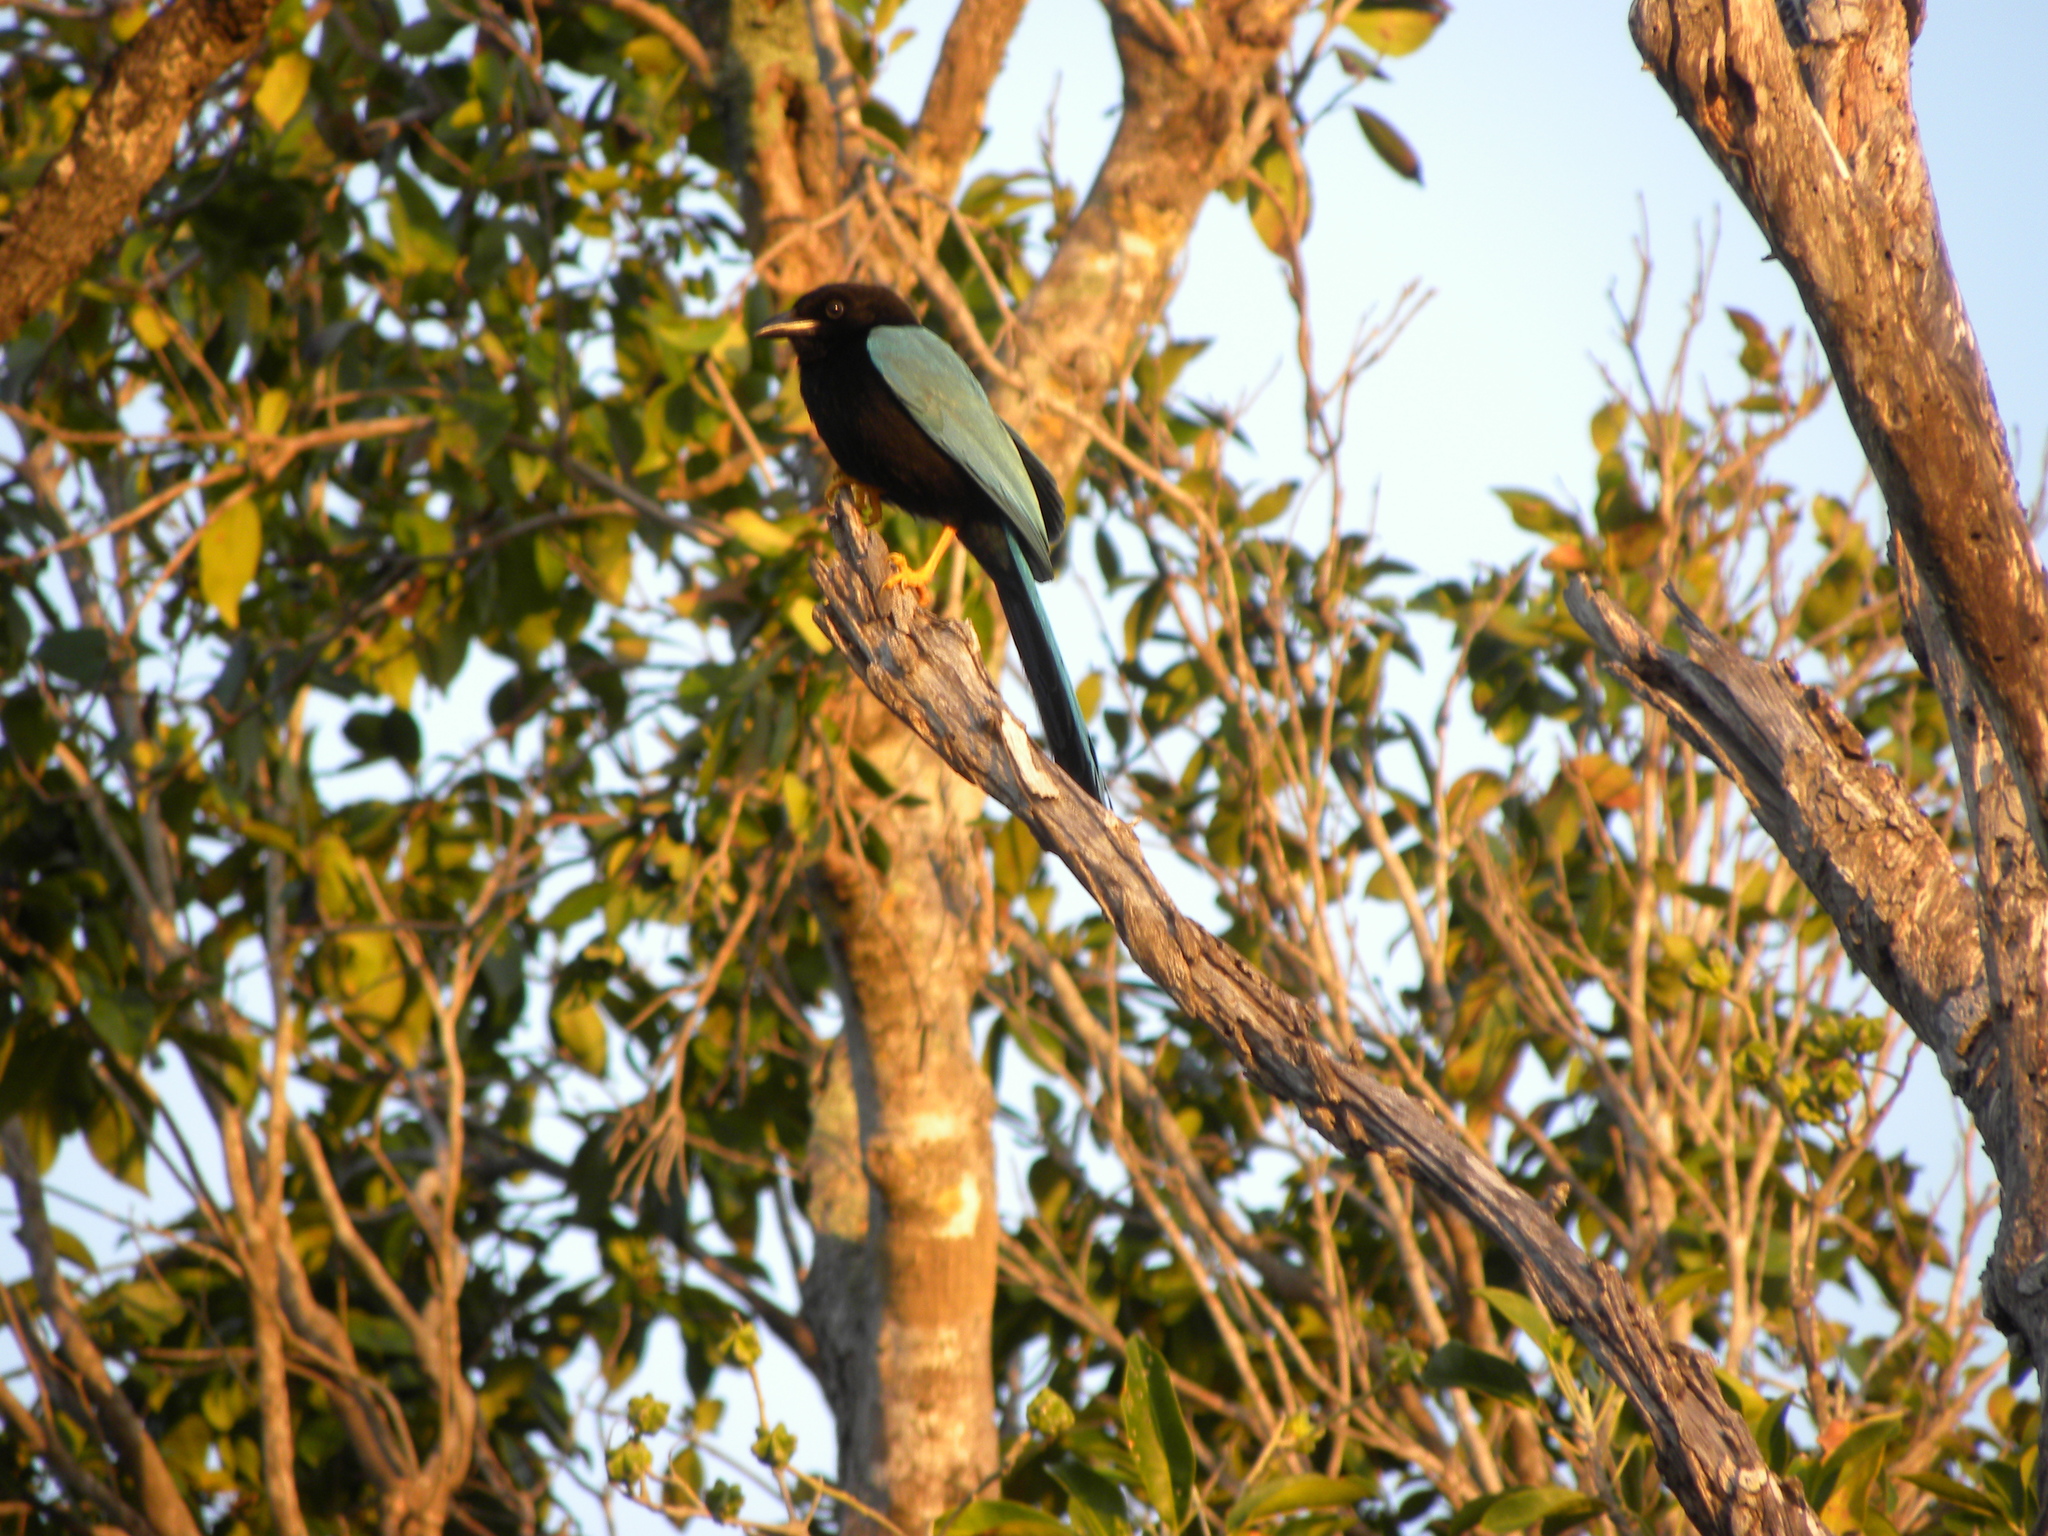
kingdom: Animalia
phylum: Chordata
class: Aves
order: Passeriformes
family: Corvidae
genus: Cyanocorax
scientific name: Cyanocorax yucatanicus
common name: Yucatan jay
